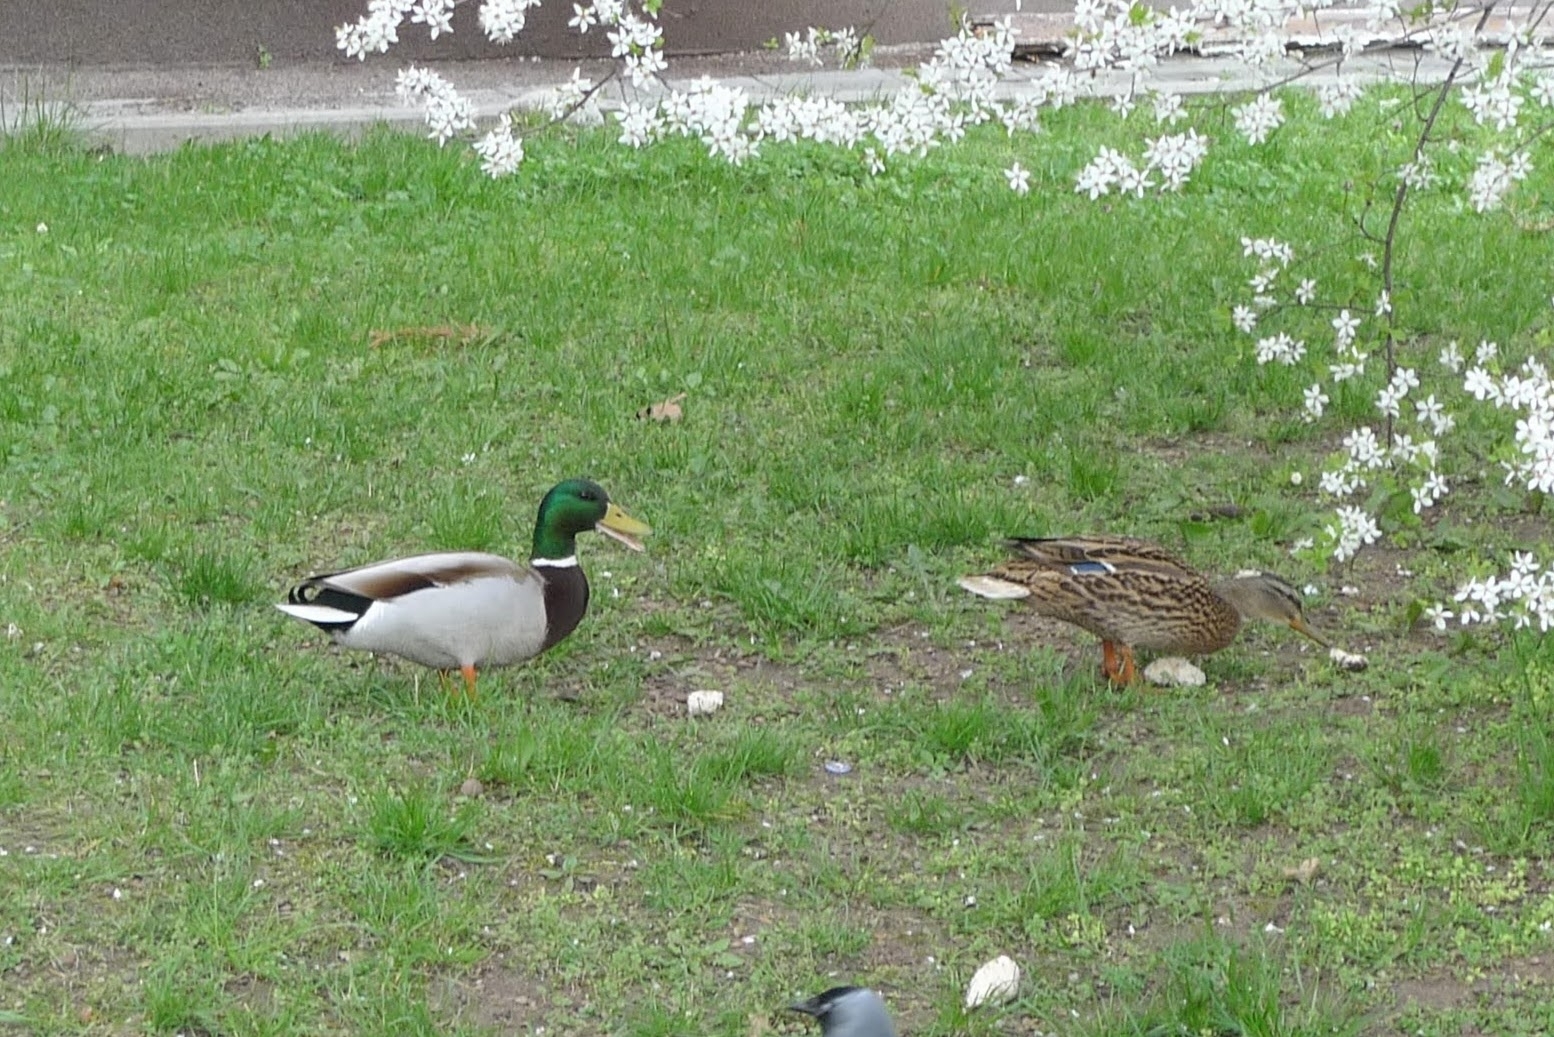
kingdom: Animalia
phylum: Chordata
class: Aves
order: Anseriformes
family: Anatidae
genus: Anas
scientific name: Anas platyrhynchos
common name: Mallard
